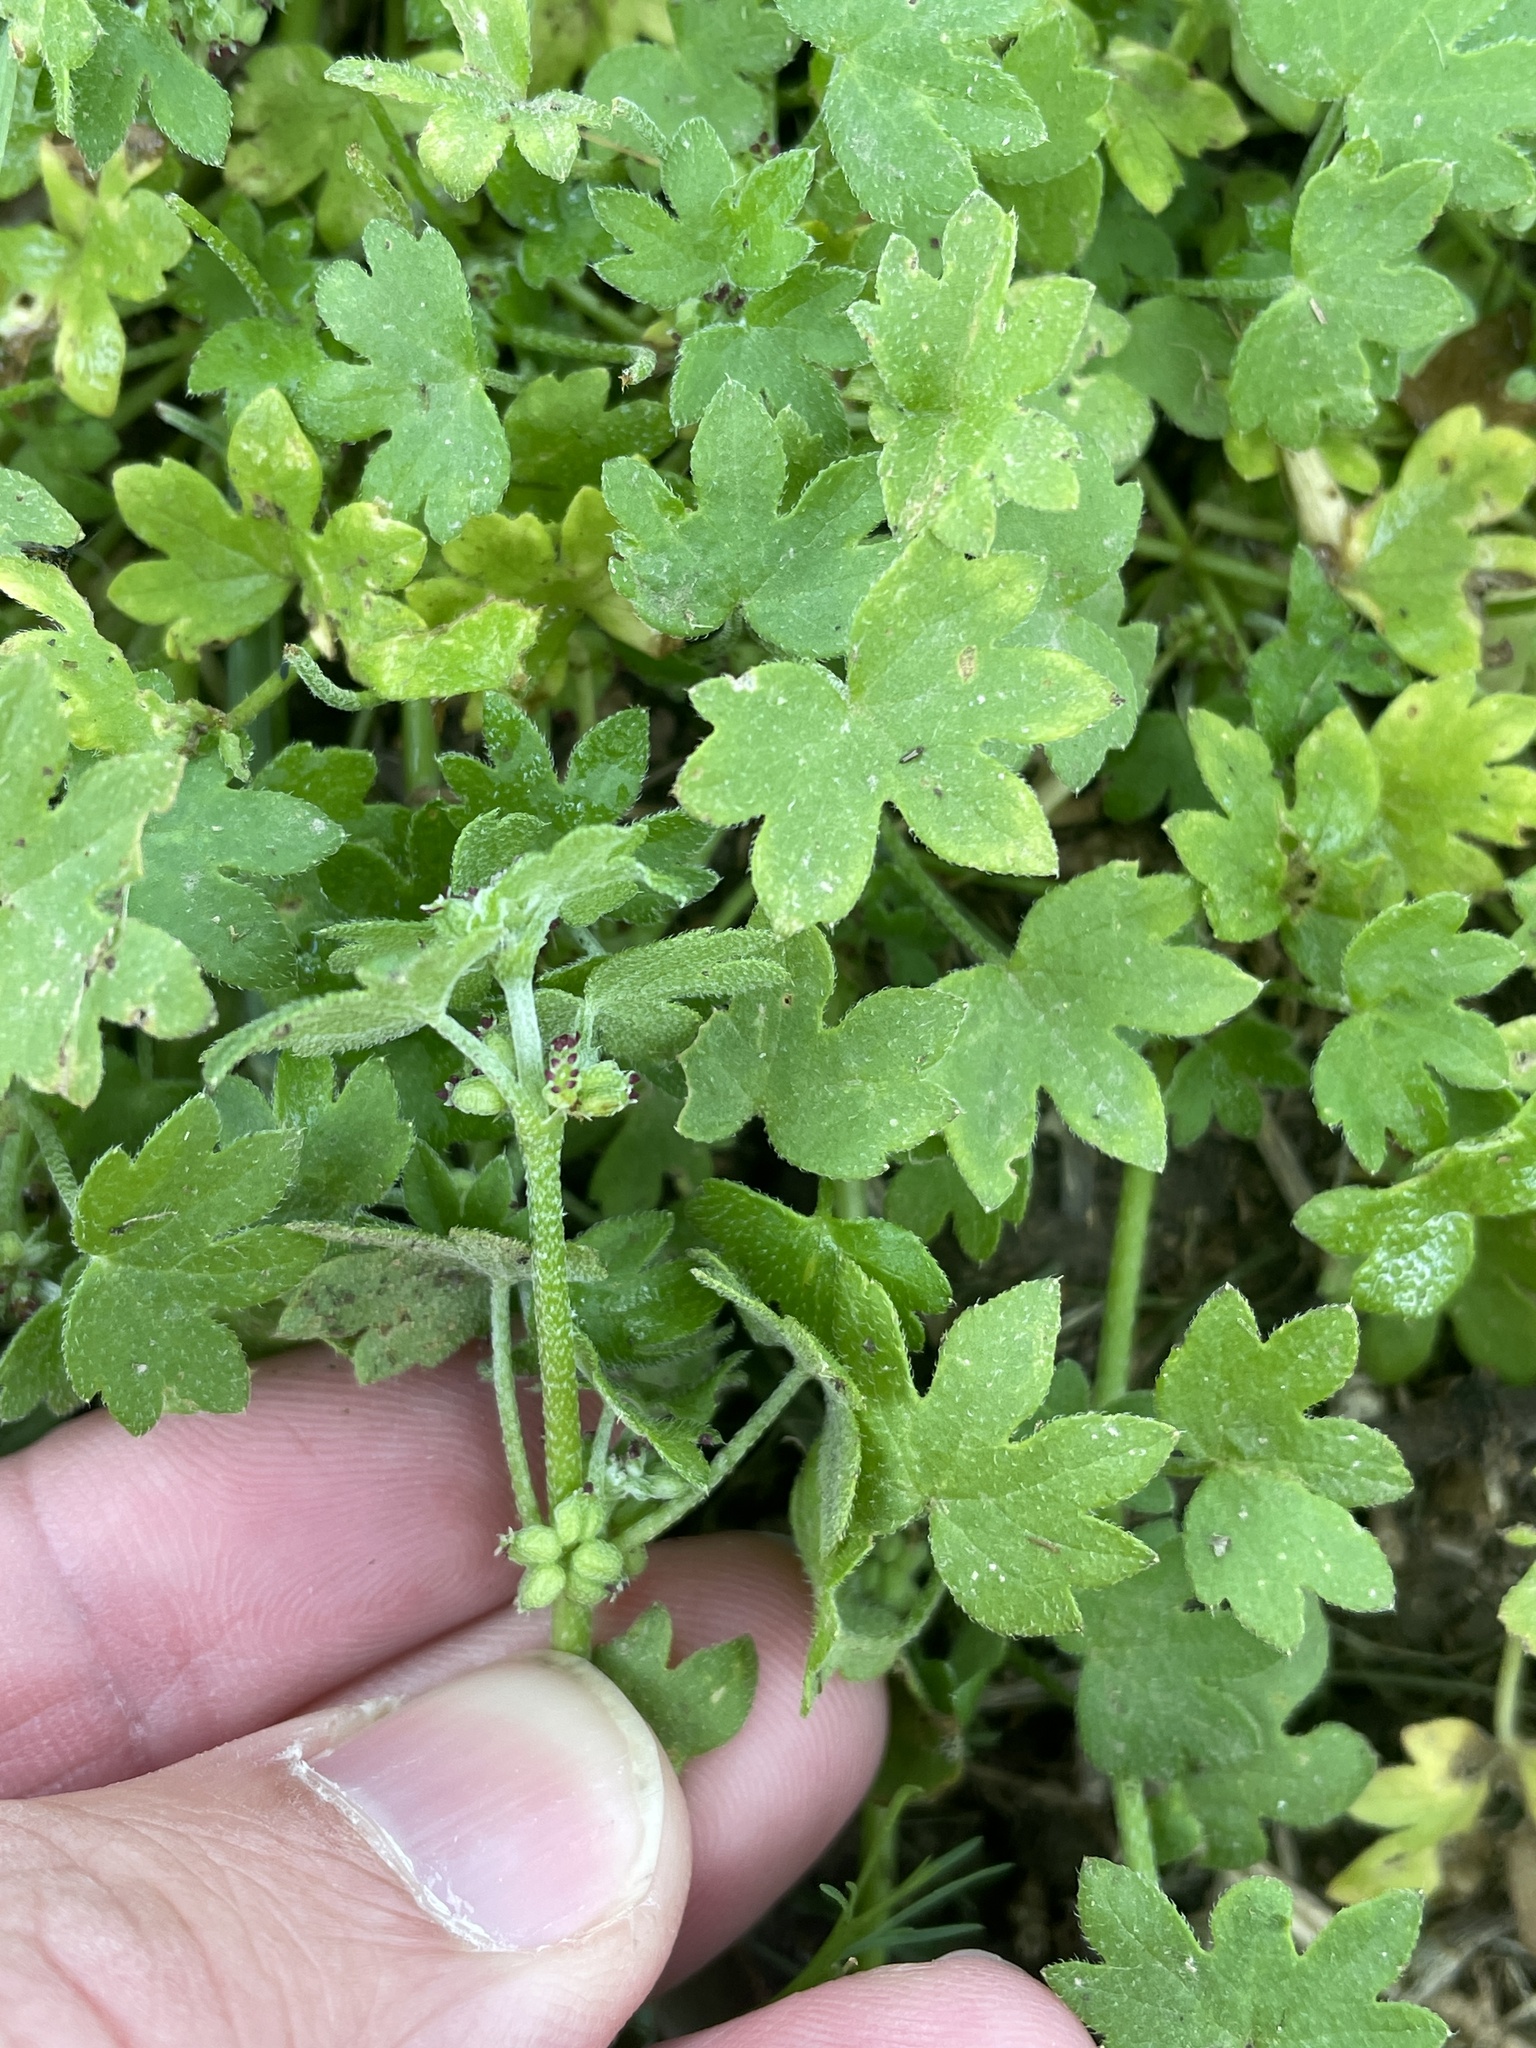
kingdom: Plantae
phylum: Tracheophyta
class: Magnoliopsida
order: Apiales
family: Apiaceae
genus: Bowlesia
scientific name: Bowlesia incana
